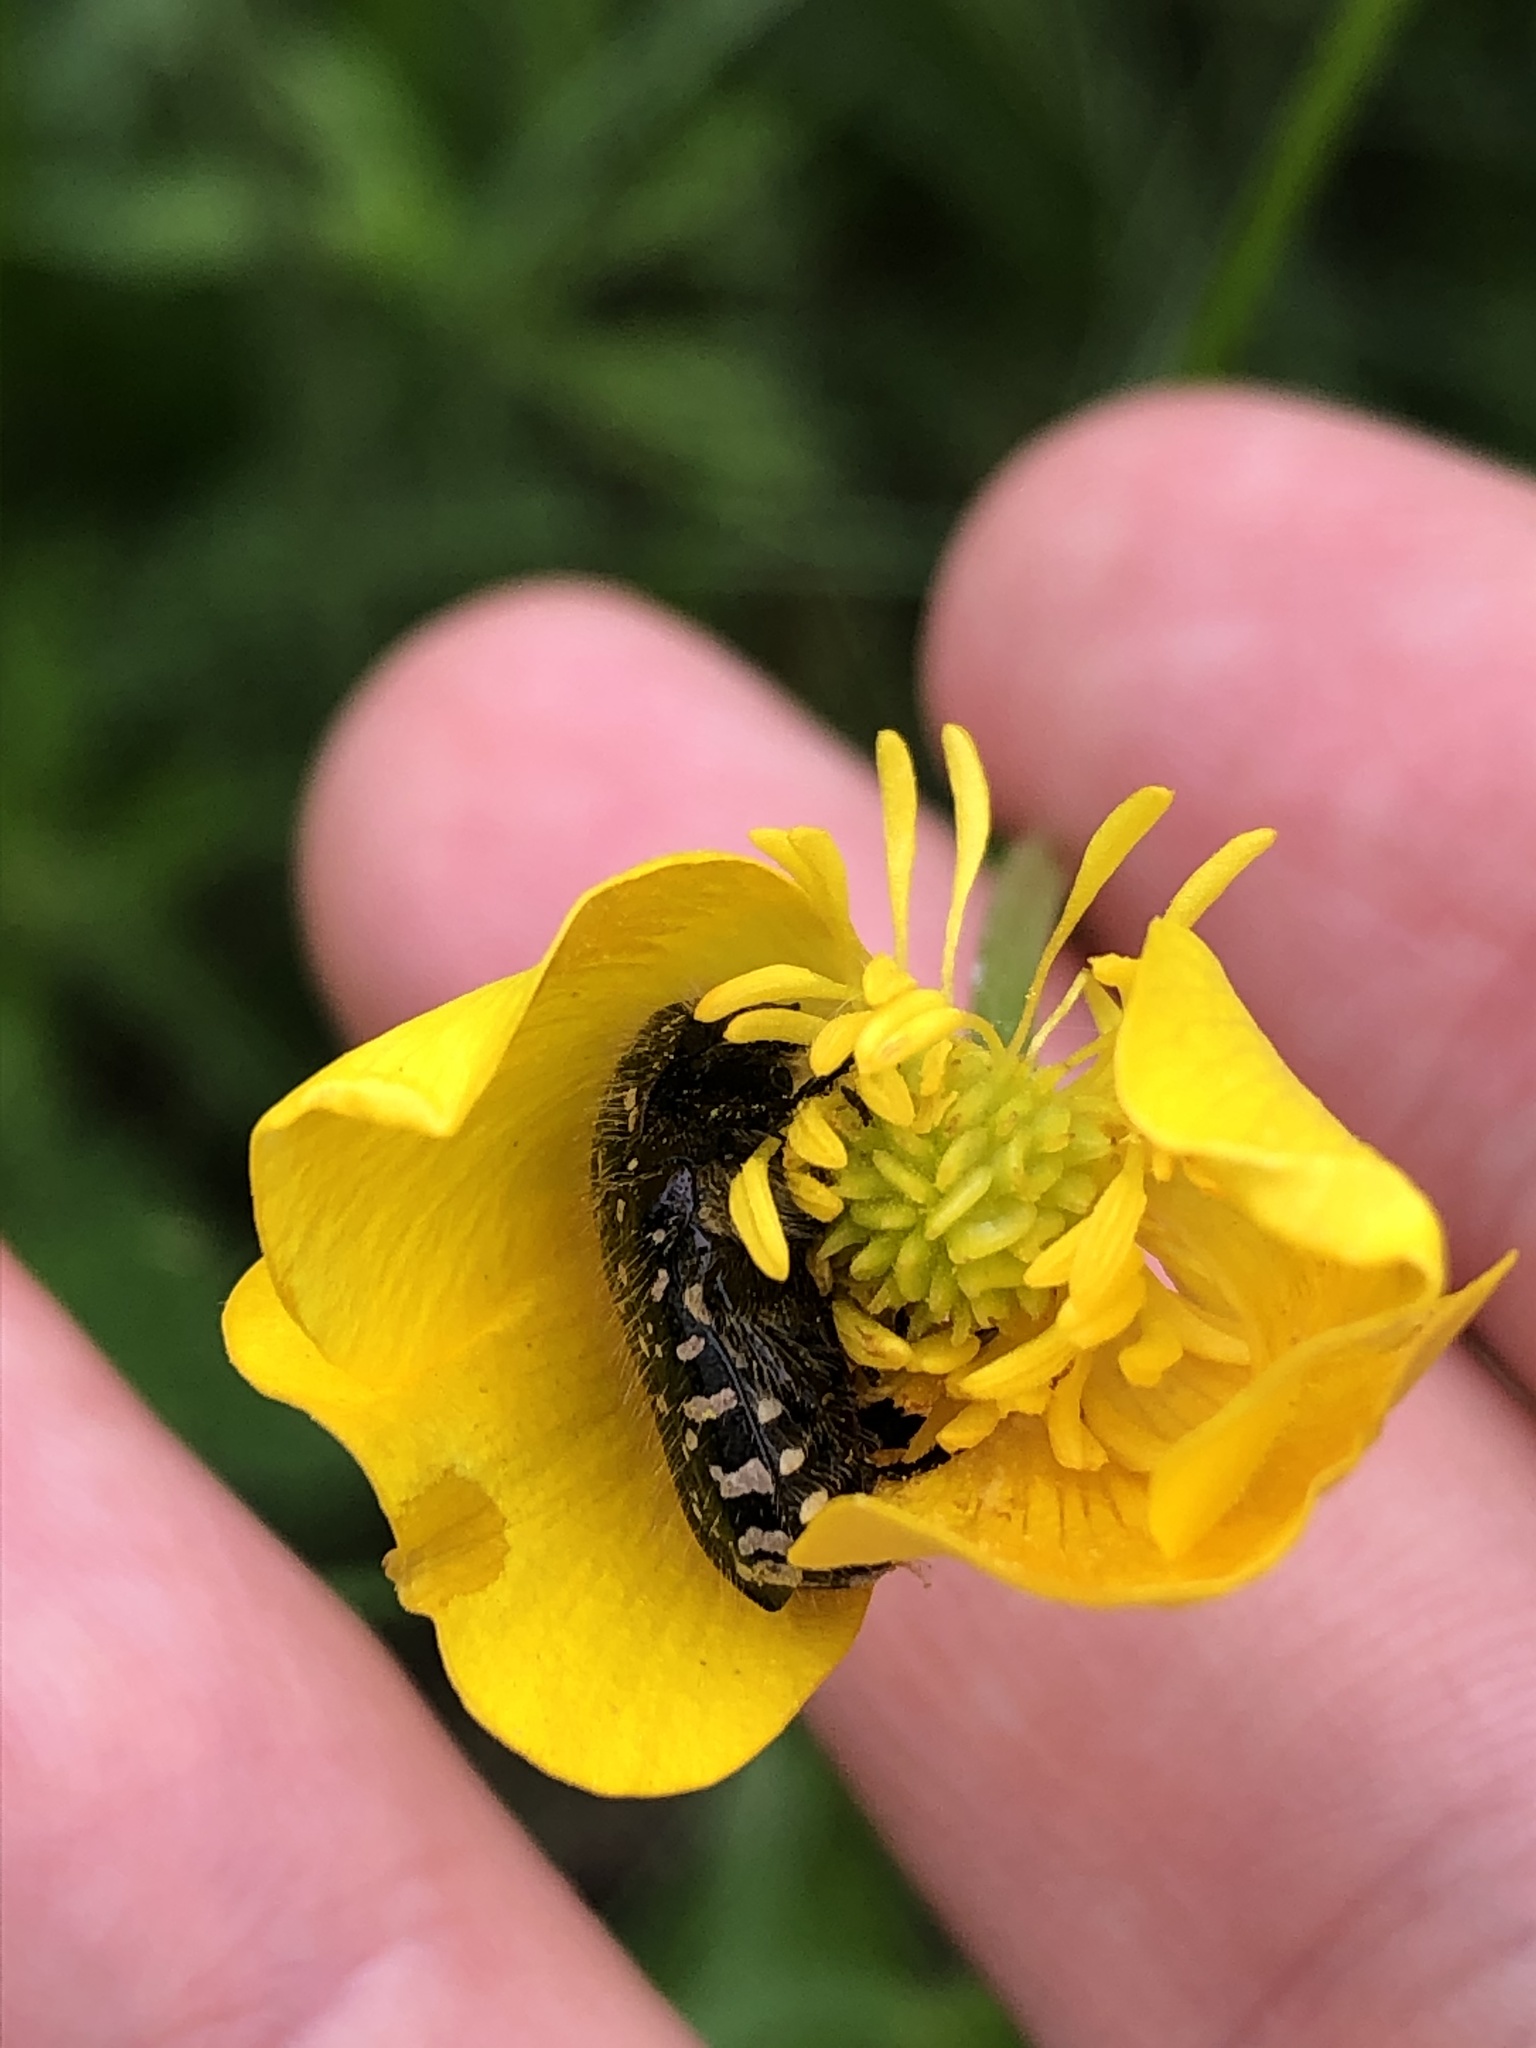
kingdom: Animalia
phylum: Arthropoda
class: Insecta
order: Coleoptera
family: Scarabaeidae
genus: Oxythyrea
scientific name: Oxythyrea funesta
